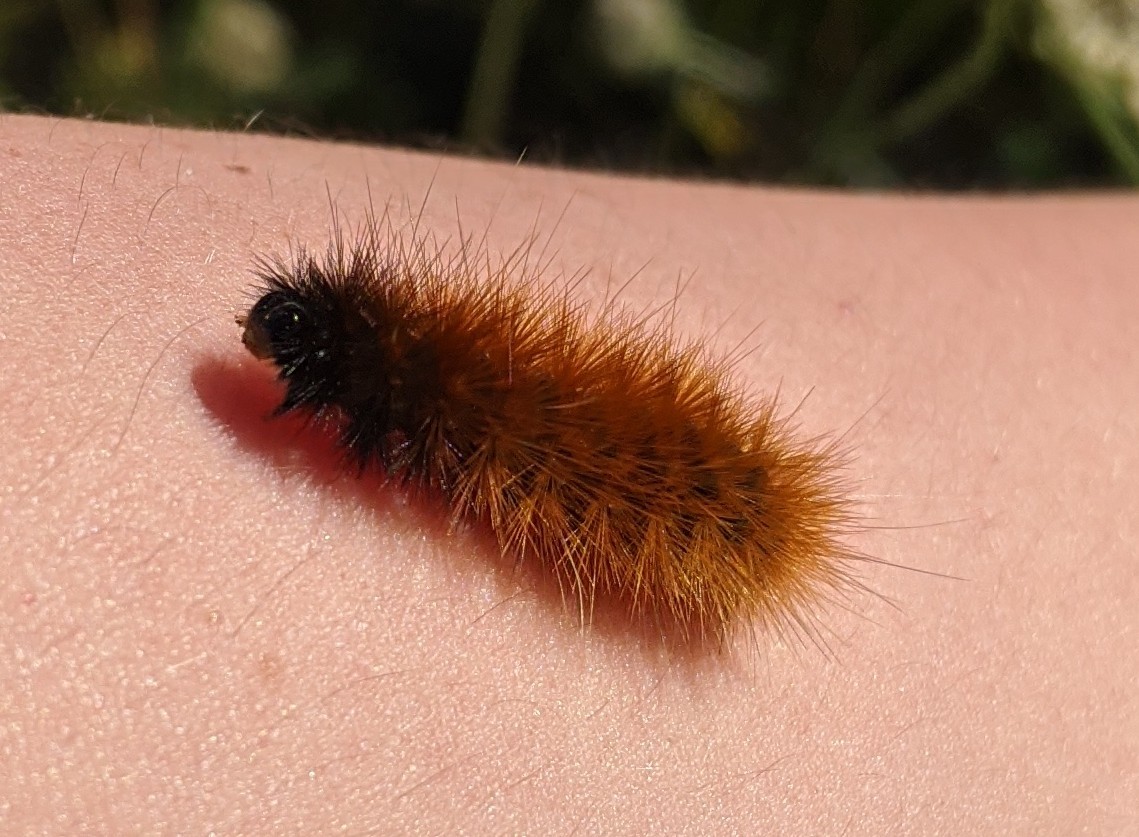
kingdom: Animalia
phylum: Arthropoda
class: Insecta
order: Lepidoptera
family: Erebidae
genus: Spilosoma
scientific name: Spilosoma virginica
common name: Virginia tiger moth
